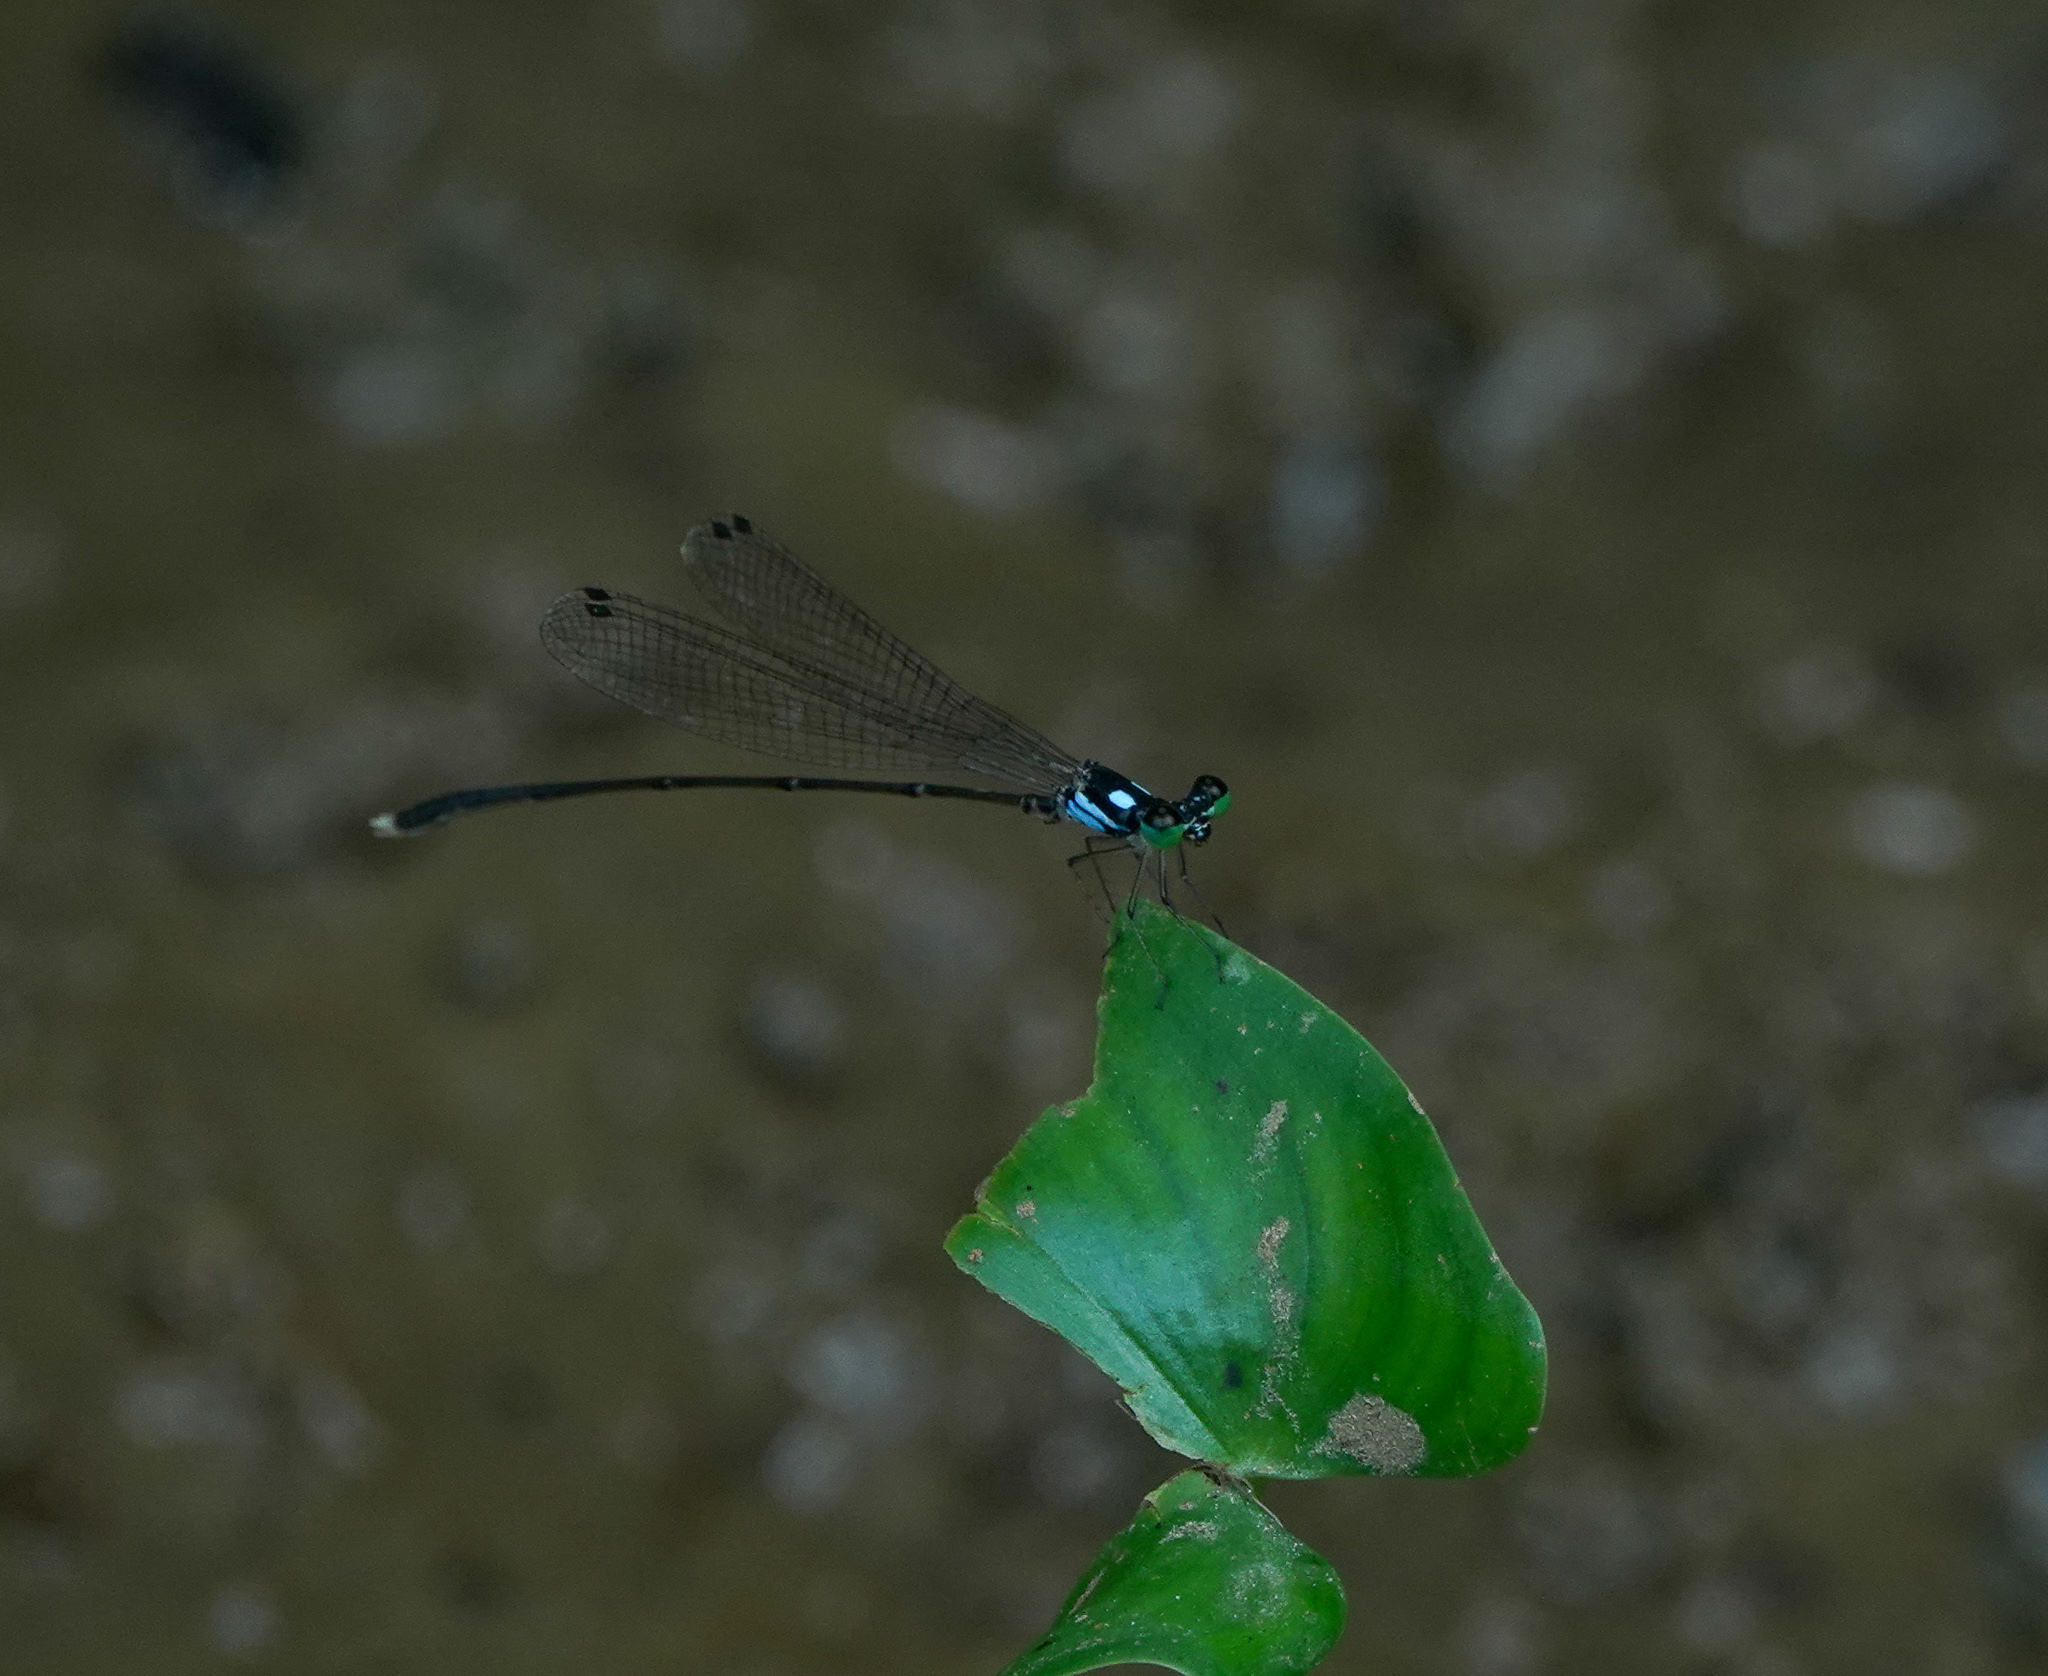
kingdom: Animalia
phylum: Arthropoda
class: Insecta
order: Odonata
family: Platycnemididae
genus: Coeliccia
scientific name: Coeliccia bimaculata
